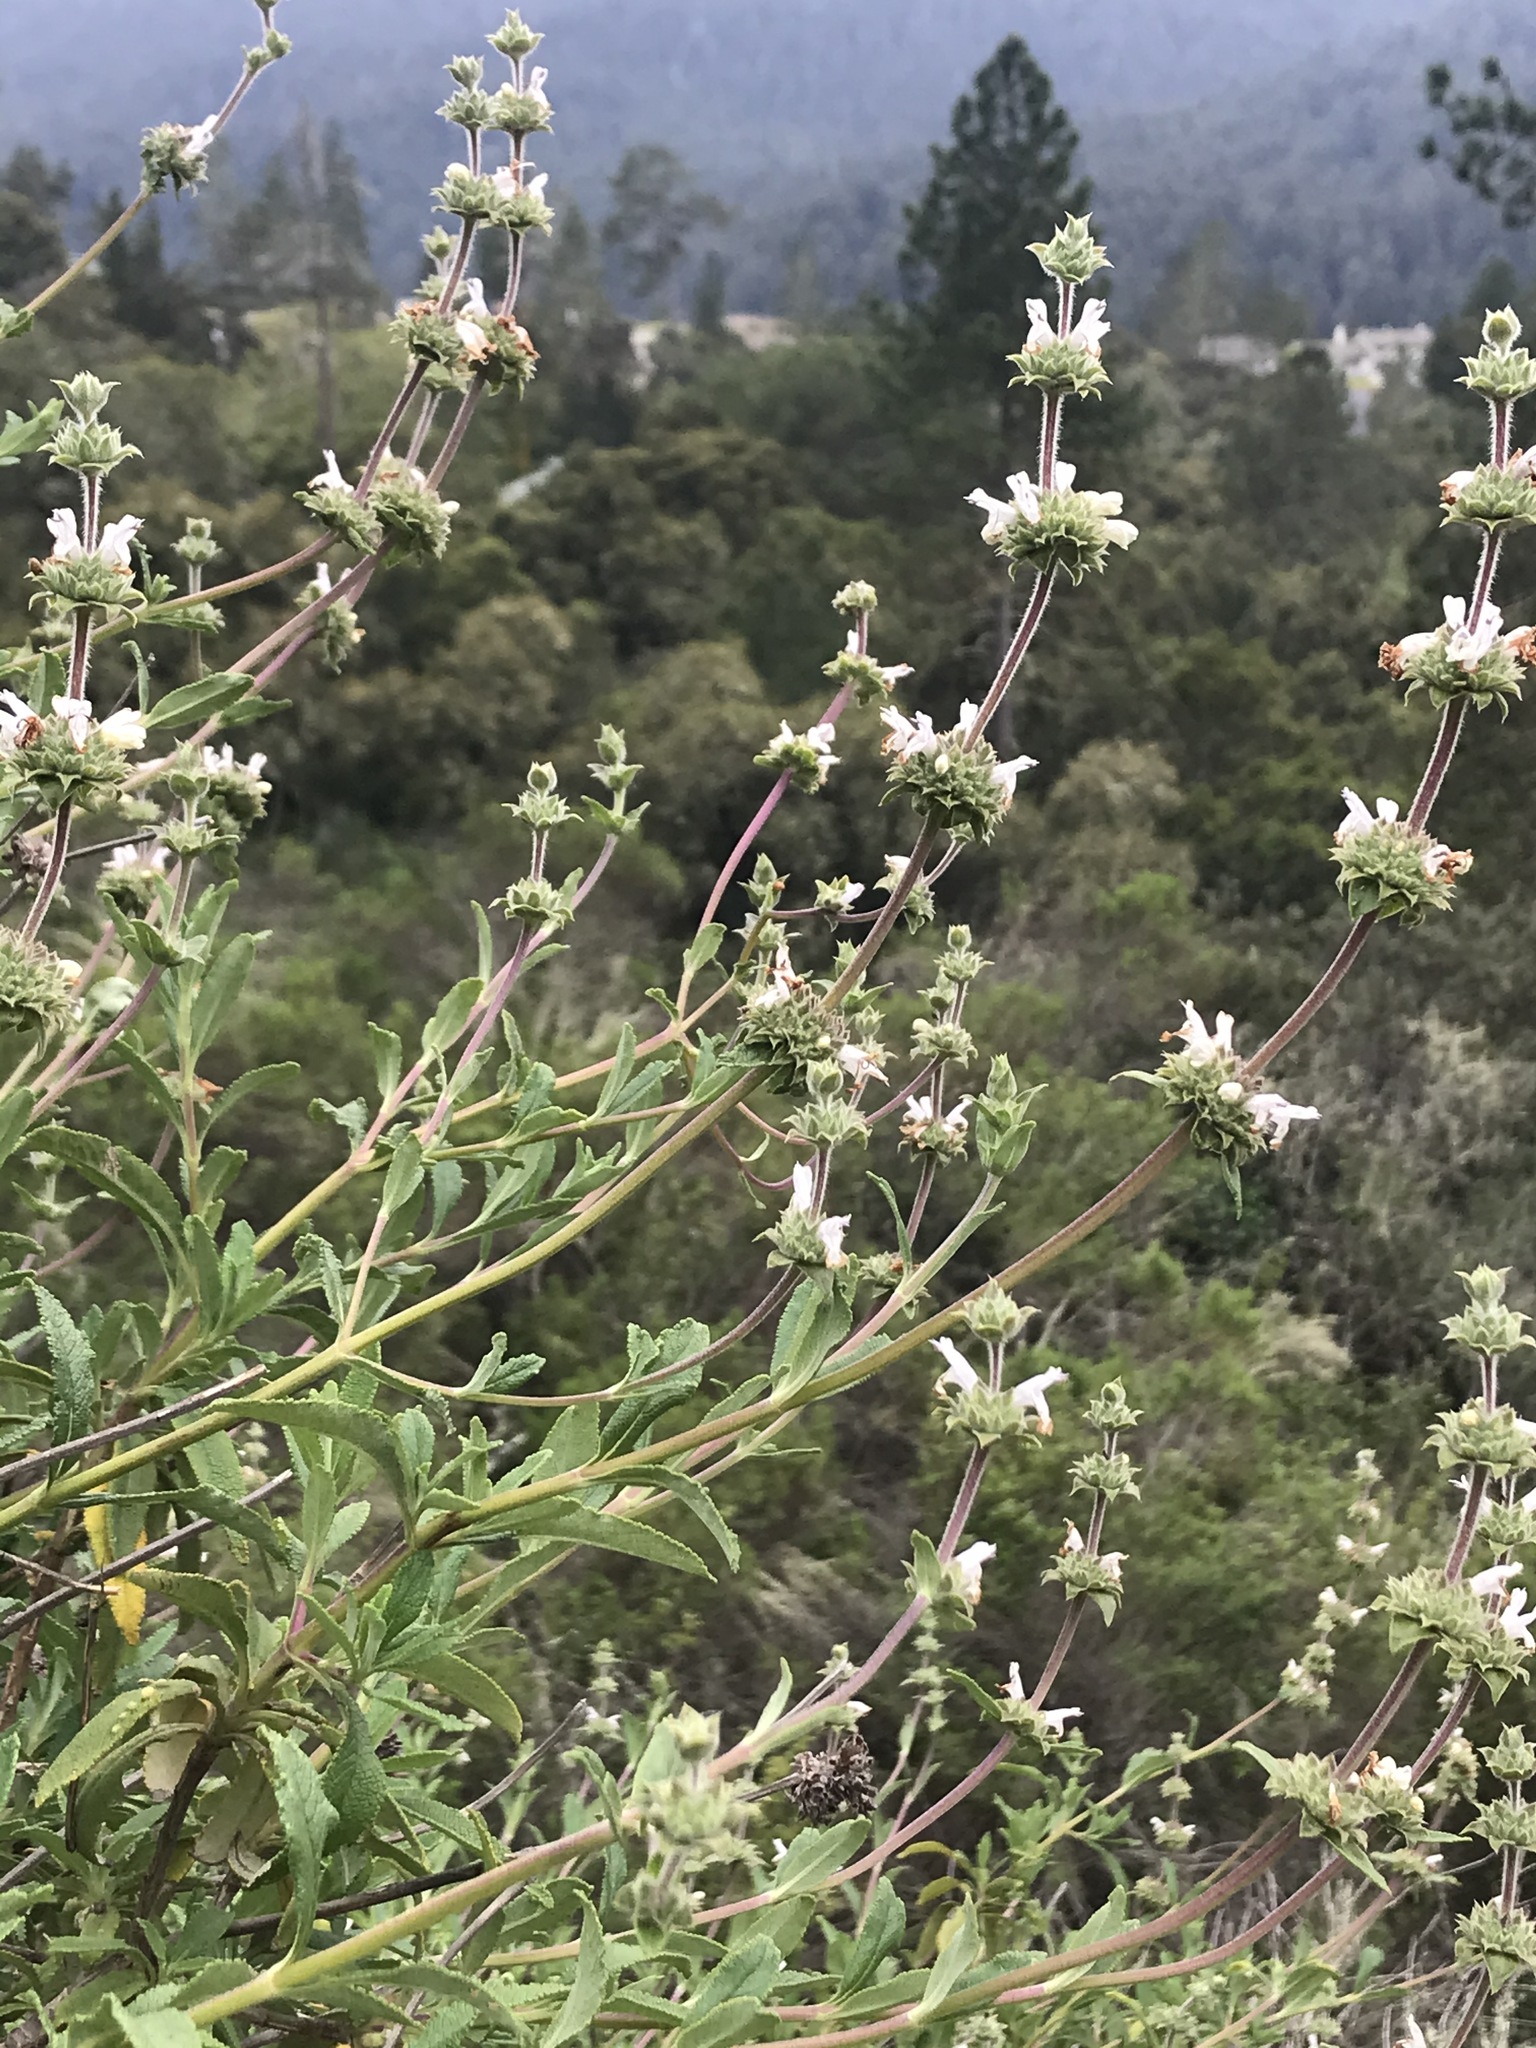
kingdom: Plantae
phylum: Tracheophyta
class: Magnoliopsida
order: Lamiales
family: Lamiaceae
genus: Salvia
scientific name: Salvia mellifera
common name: Black sage
